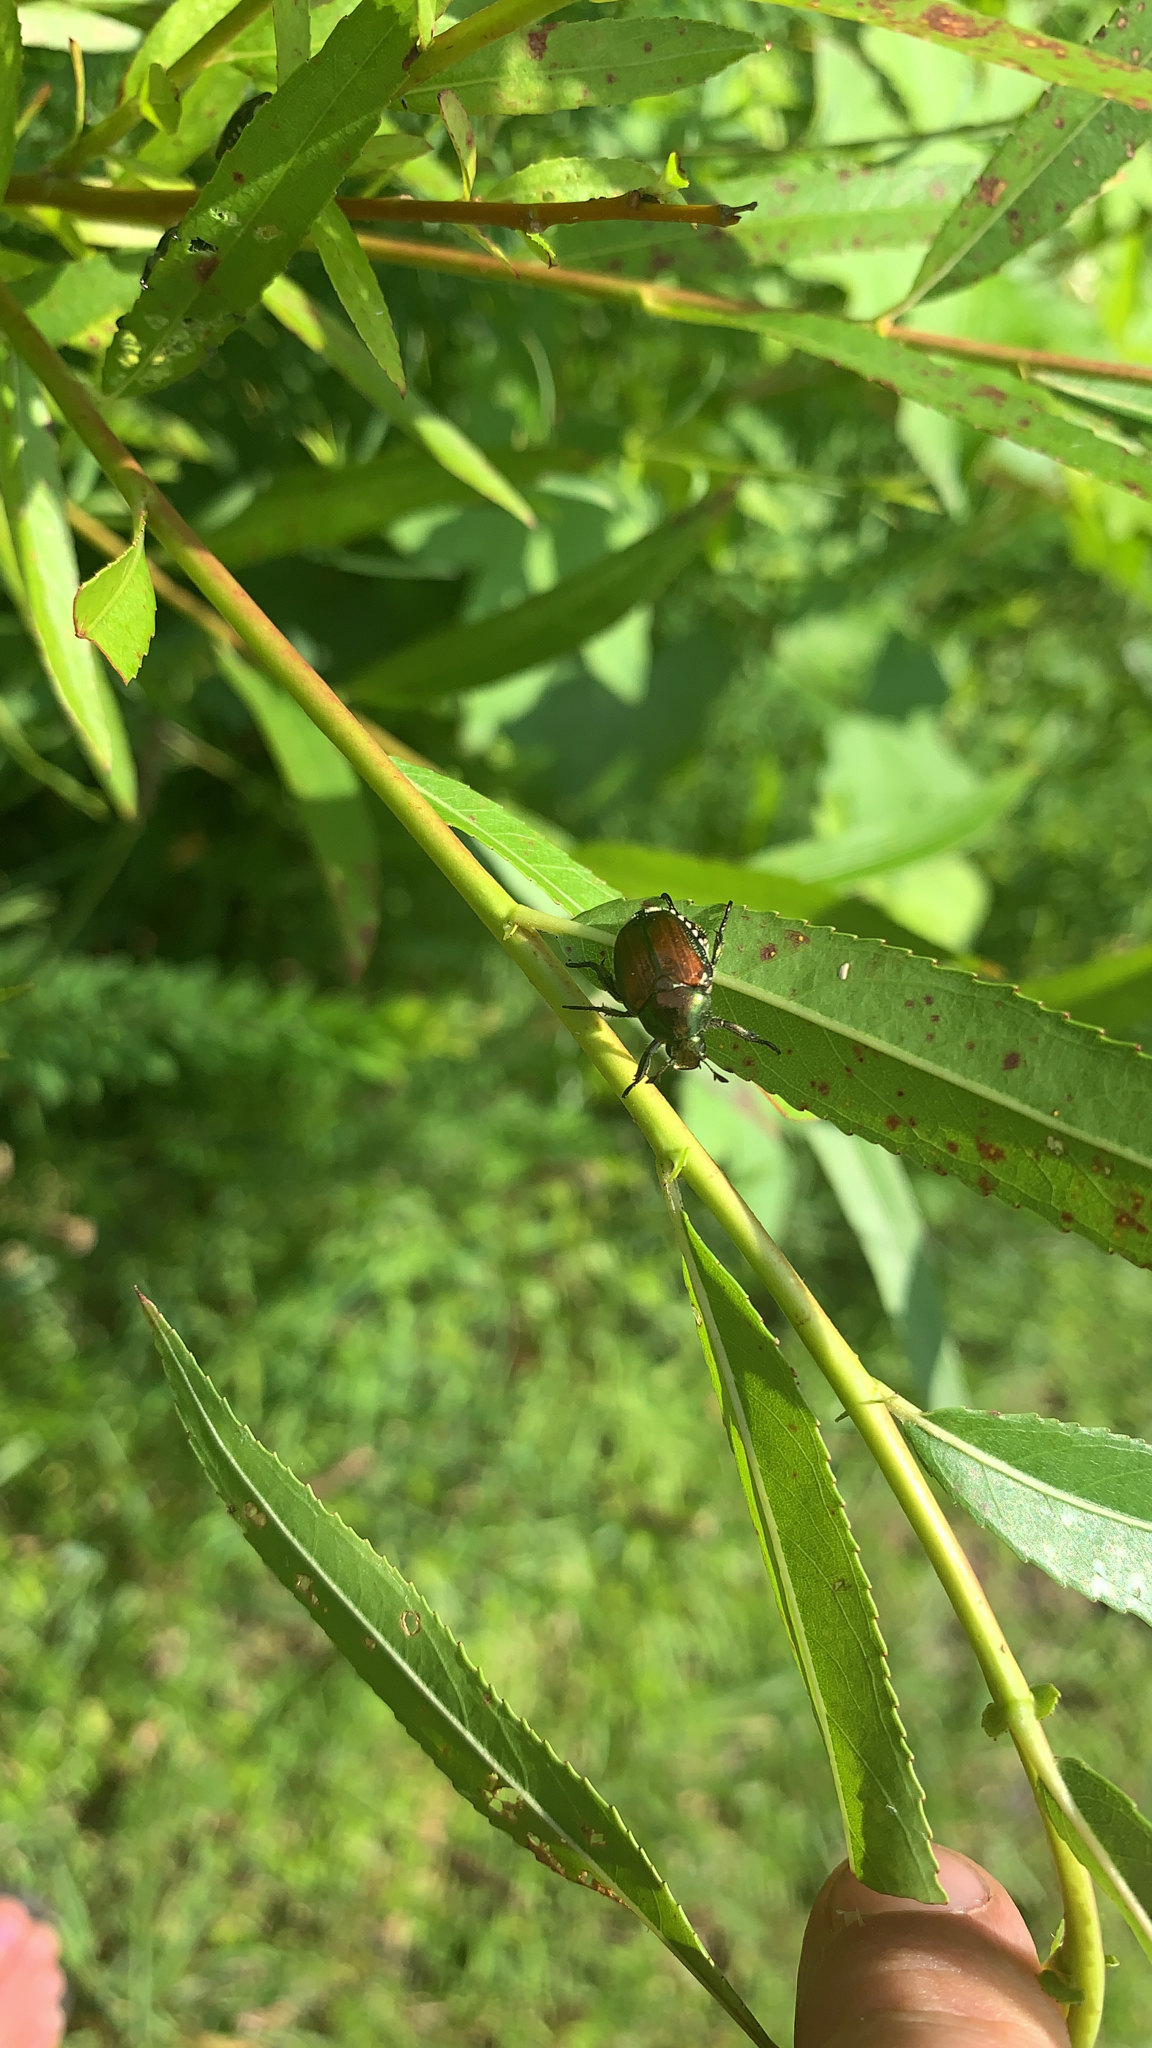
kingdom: Animalia
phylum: Arthropoda
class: Insecta
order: Coleoptera
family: Scarabaeidae
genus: Popillia
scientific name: Popillia japonica
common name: Japanese beetle
